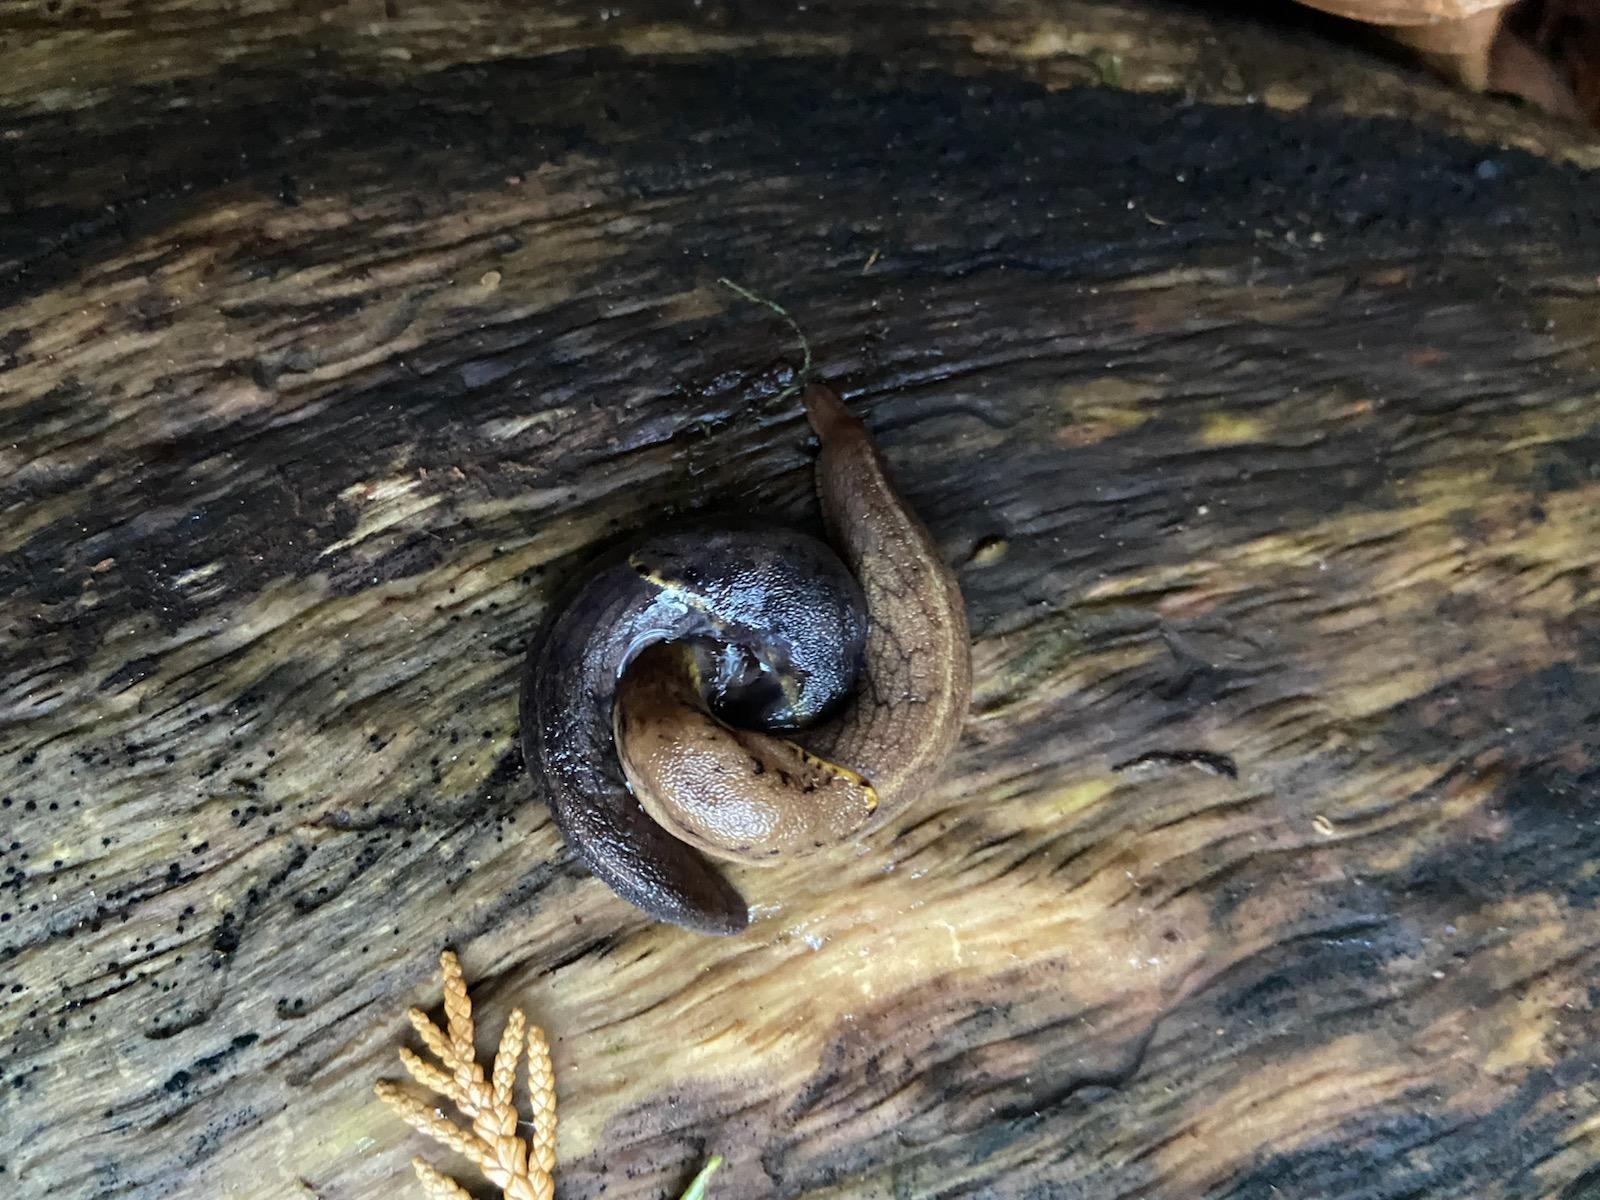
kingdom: Animalia
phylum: Mollusca
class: Gastropoda
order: Stylommatophora
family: Ariolimacidae
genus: Prophysaon
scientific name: Prophysaon foliolatum
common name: Yellow-bordered taildropper
